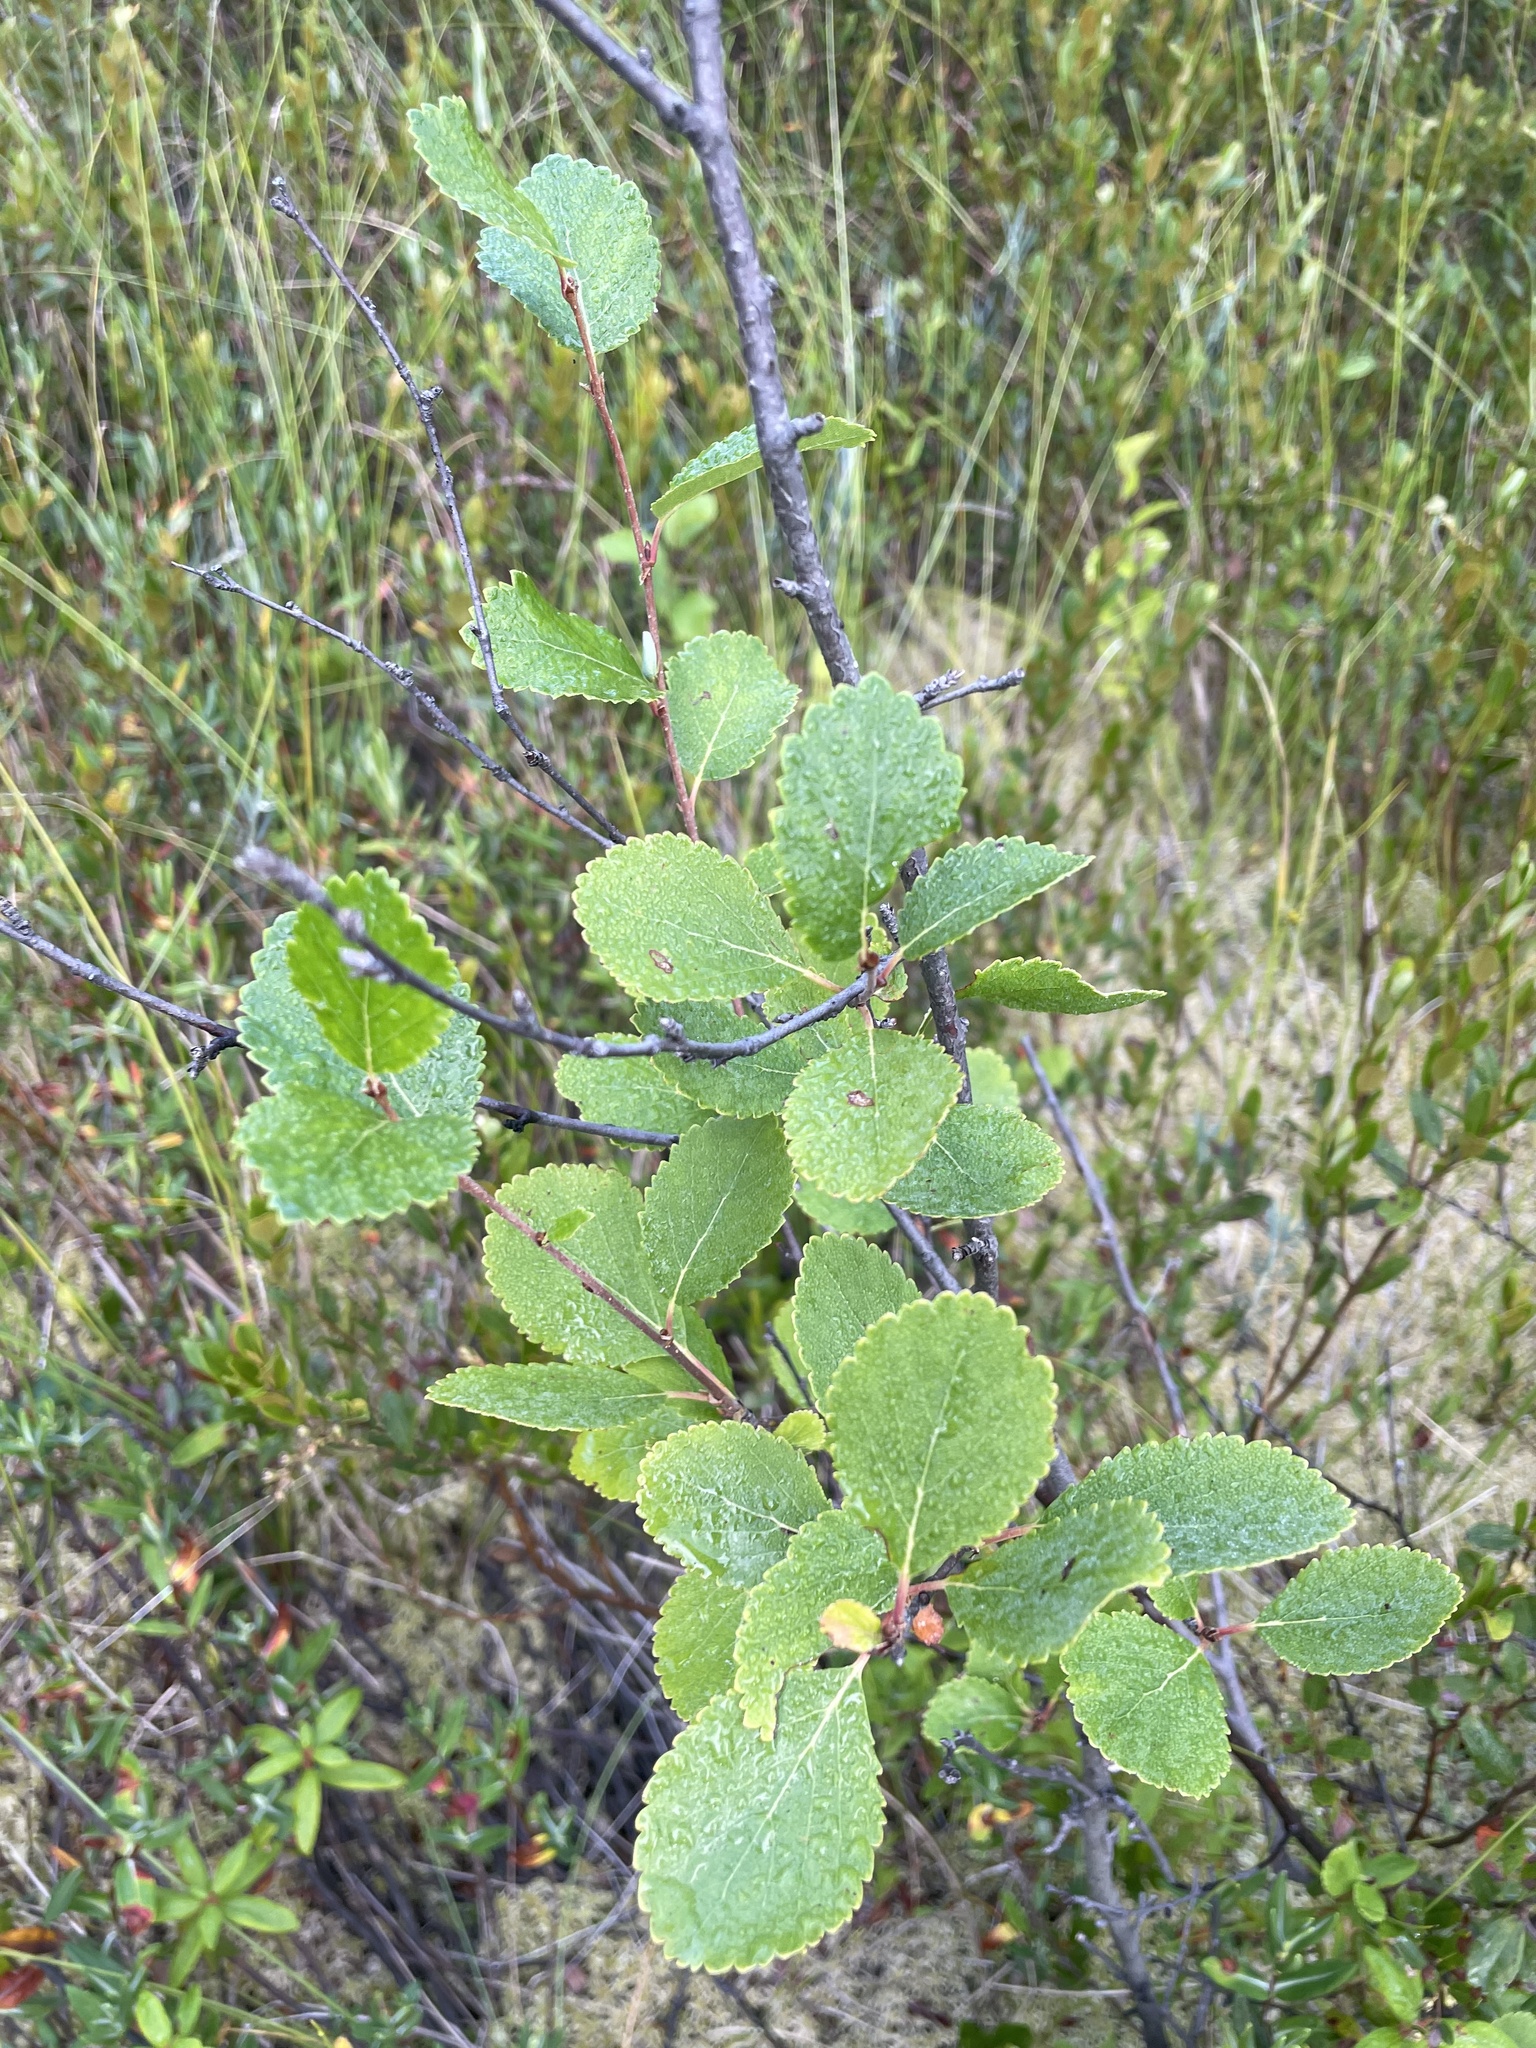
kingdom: Plantae
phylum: Tracheophyta
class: Magnoliopsida
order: Fagales
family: Betulaceae
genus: Betula
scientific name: Betula pumila
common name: Bog birch
